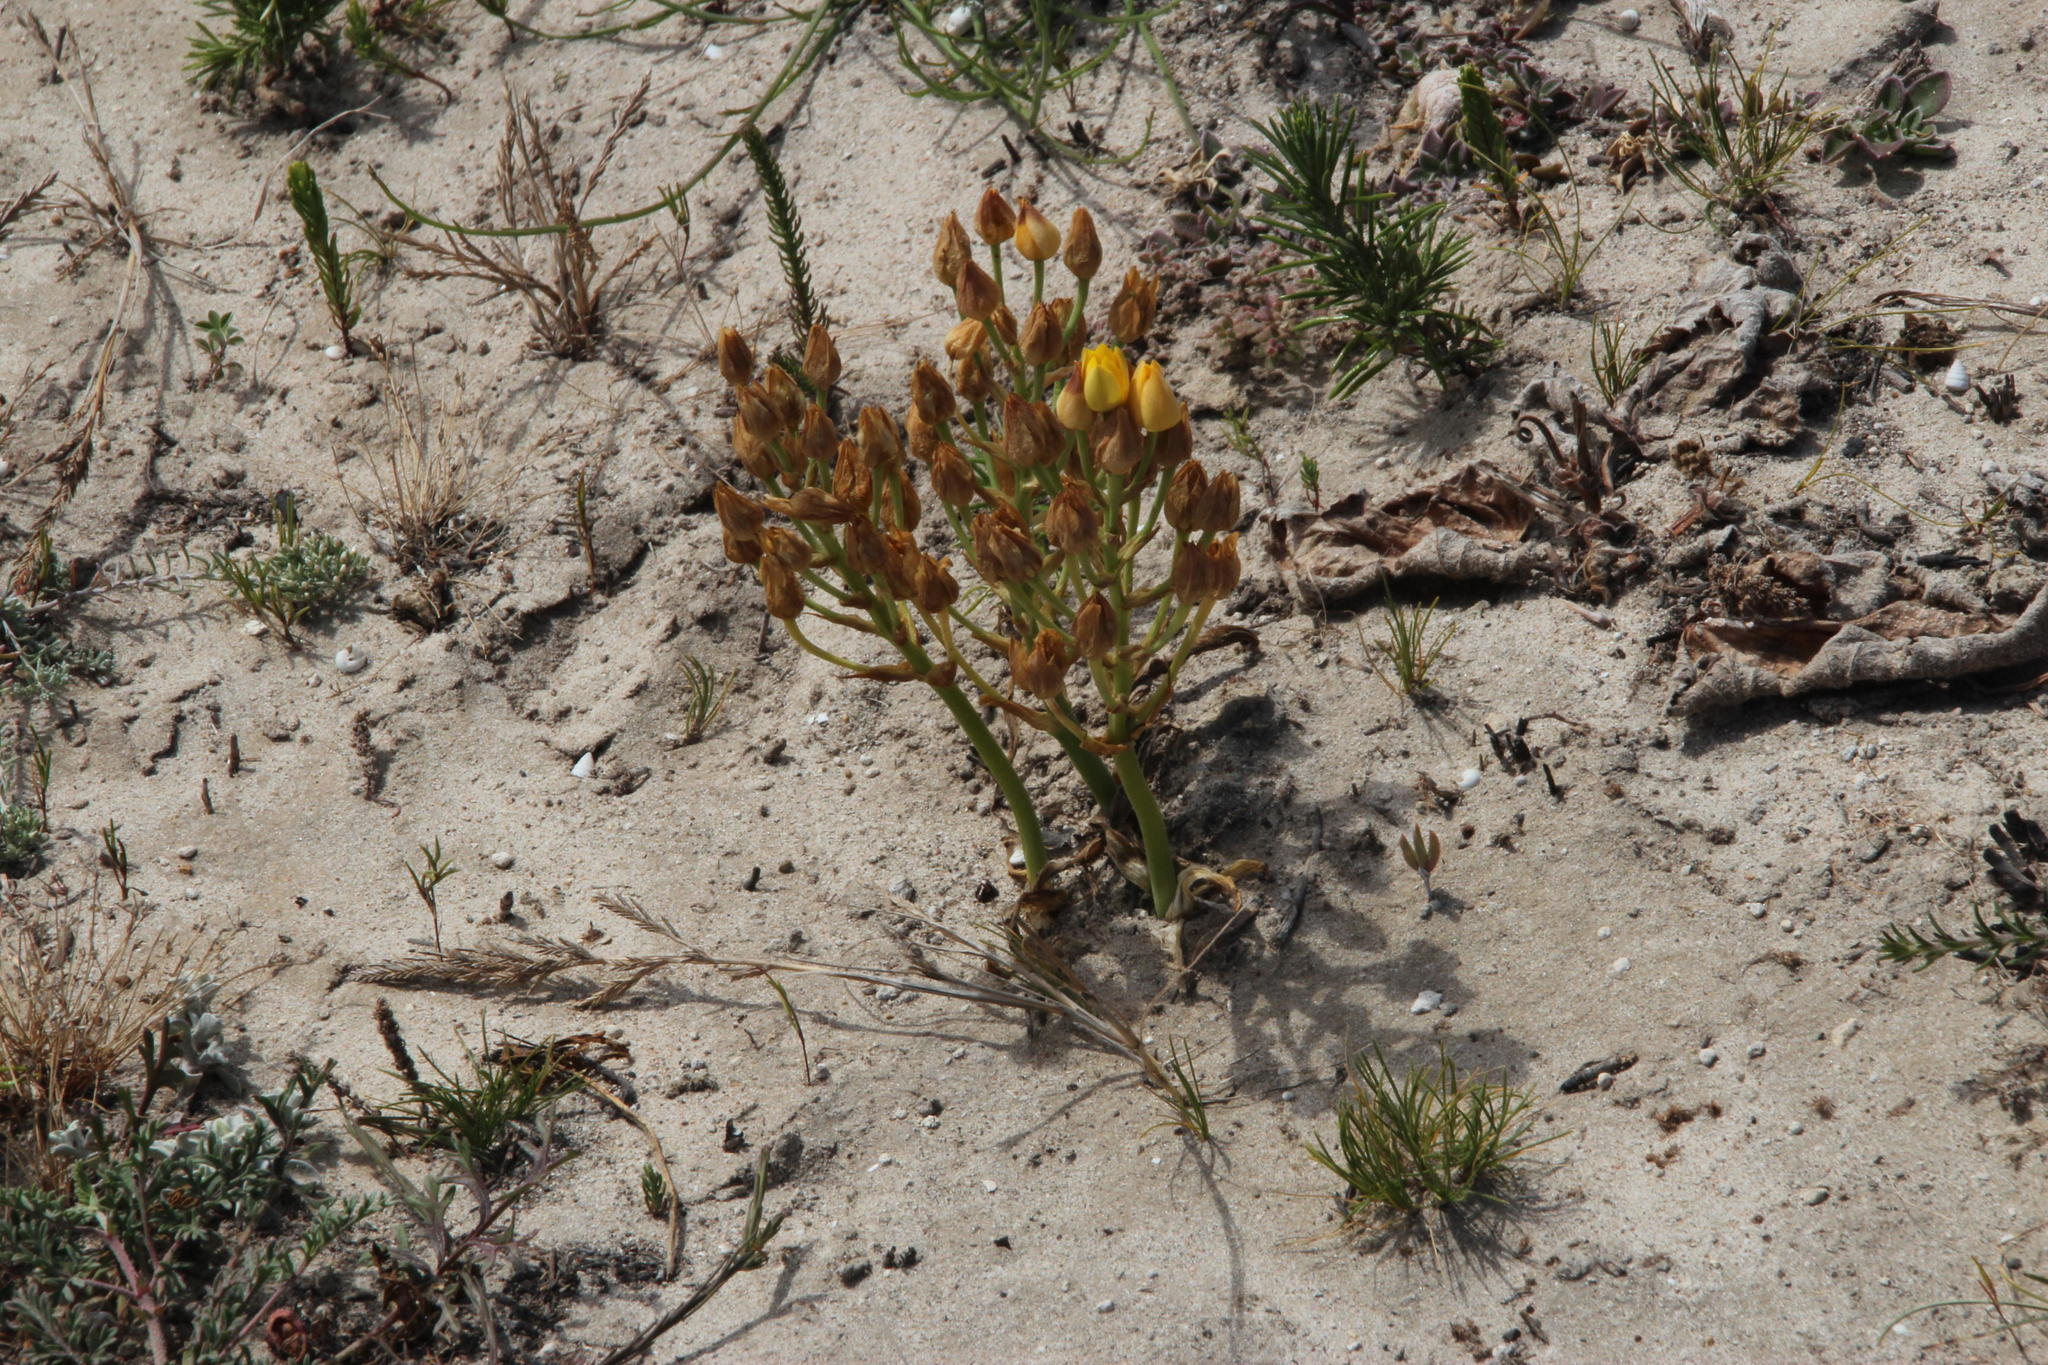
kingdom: Plantae
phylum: Tracheophyta
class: Liliopsida
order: Asparagales
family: Asparagaceae
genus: Ornithogalum
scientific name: Ornithogalum dubium
